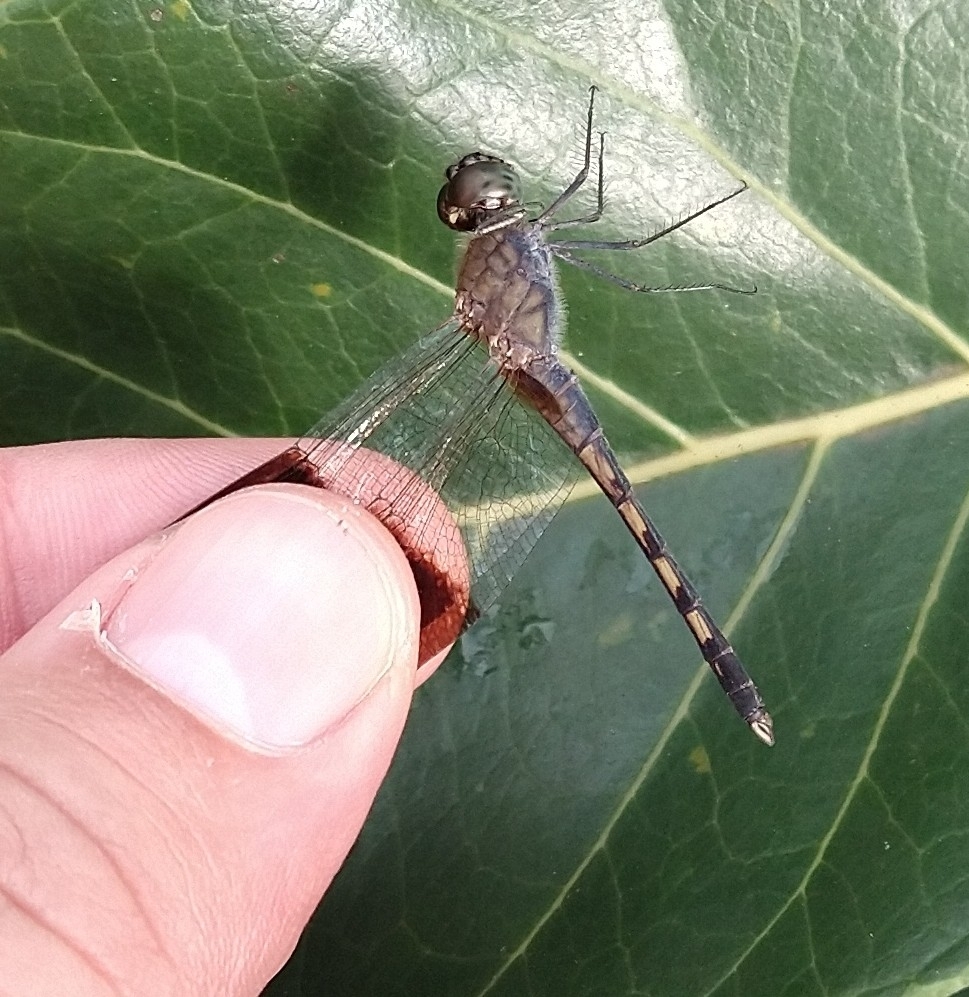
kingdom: Animalia
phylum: Arthropoda
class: Insecta
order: Odonata
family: Libellulidae
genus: Erythrodiplax
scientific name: Erythrodiplax umbrata
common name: Band-winged dragonlet
